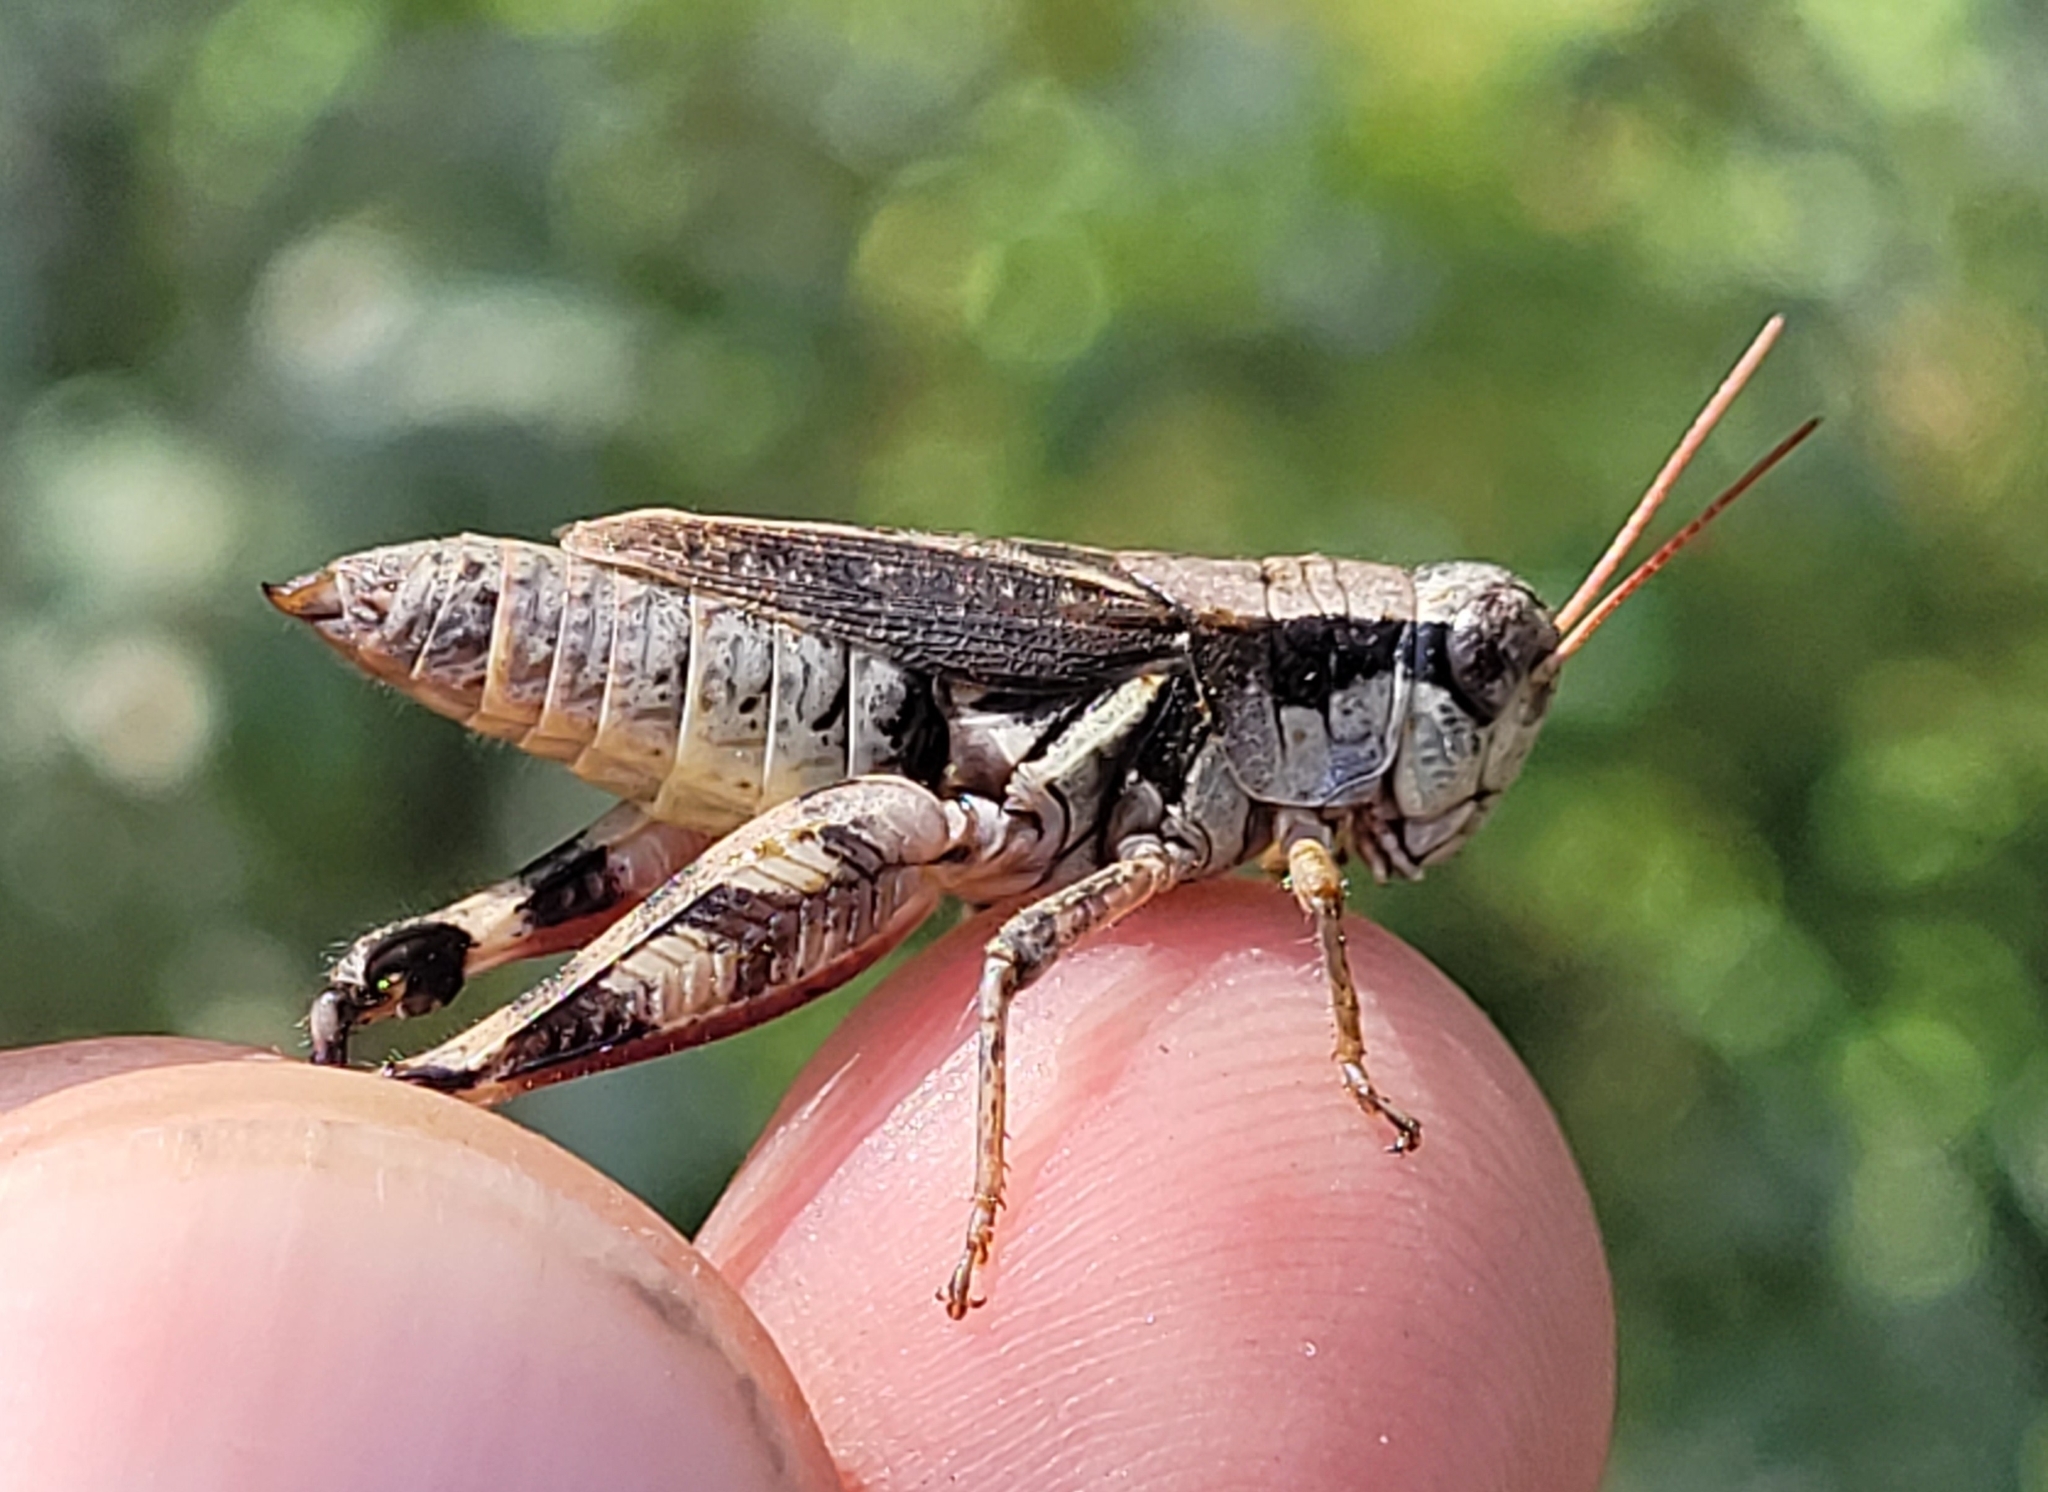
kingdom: Animalia
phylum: Arthropoda
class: Insecta
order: Orthoptera
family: Acrididae
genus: Melanoplus
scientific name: Melanoplus fasciatus
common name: Huckleberry locust
